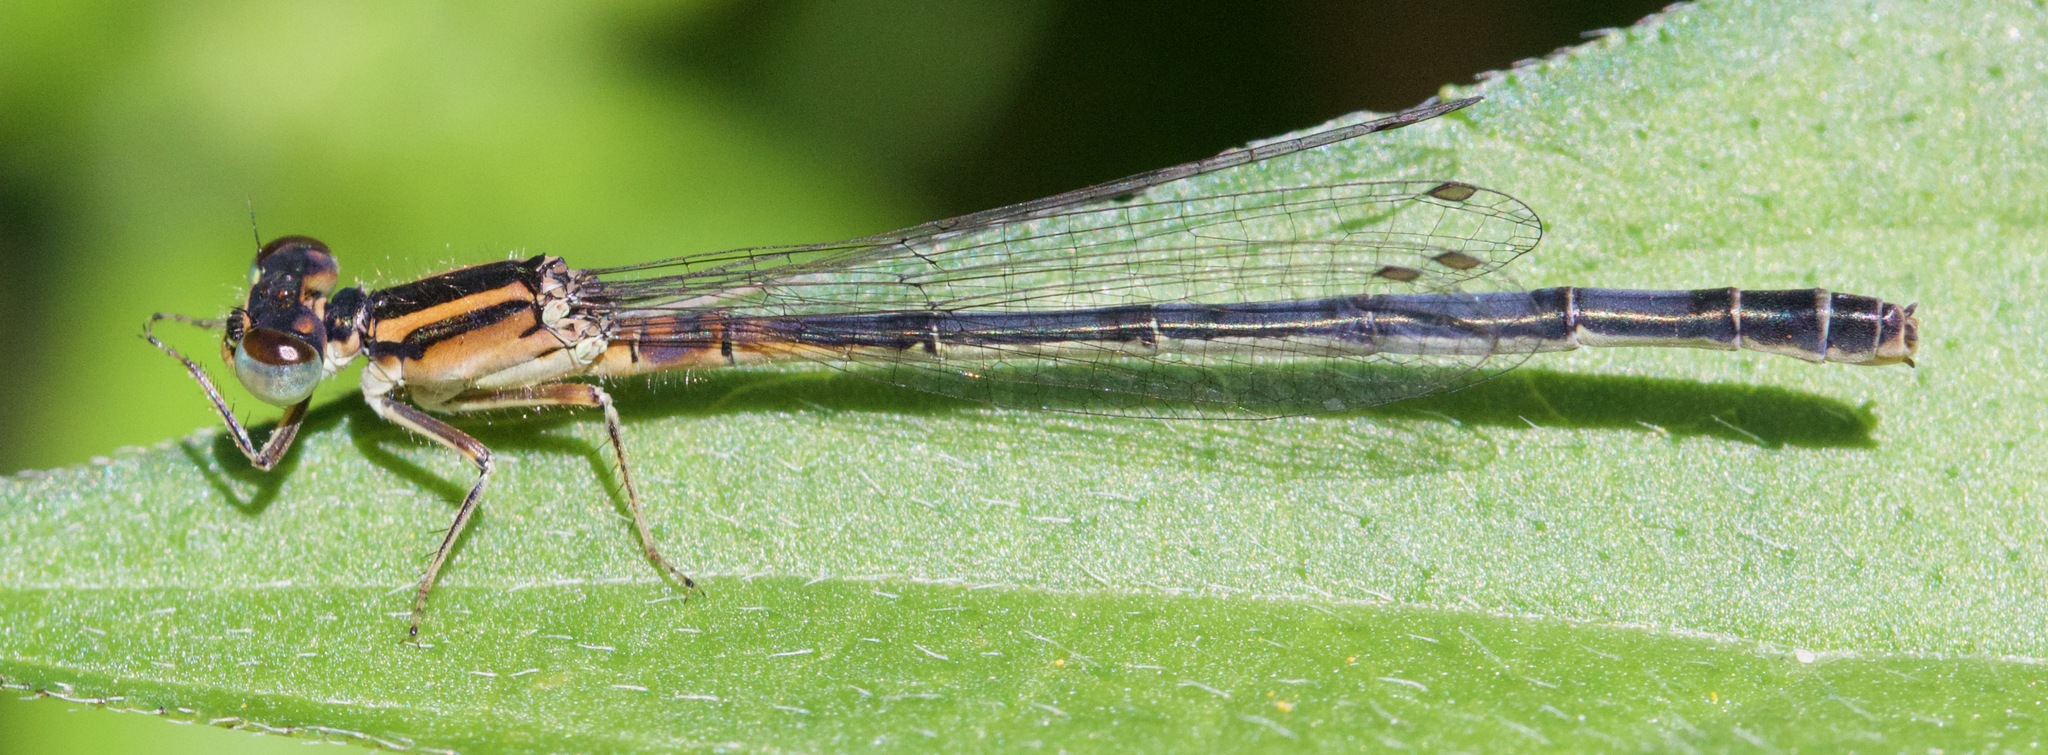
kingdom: Animalia
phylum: Arthropoda
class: Insecta
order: Odonata
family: Coenagrionidae
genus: Ischnura
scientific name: Ischnura verticalis
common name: Eastern forktail
